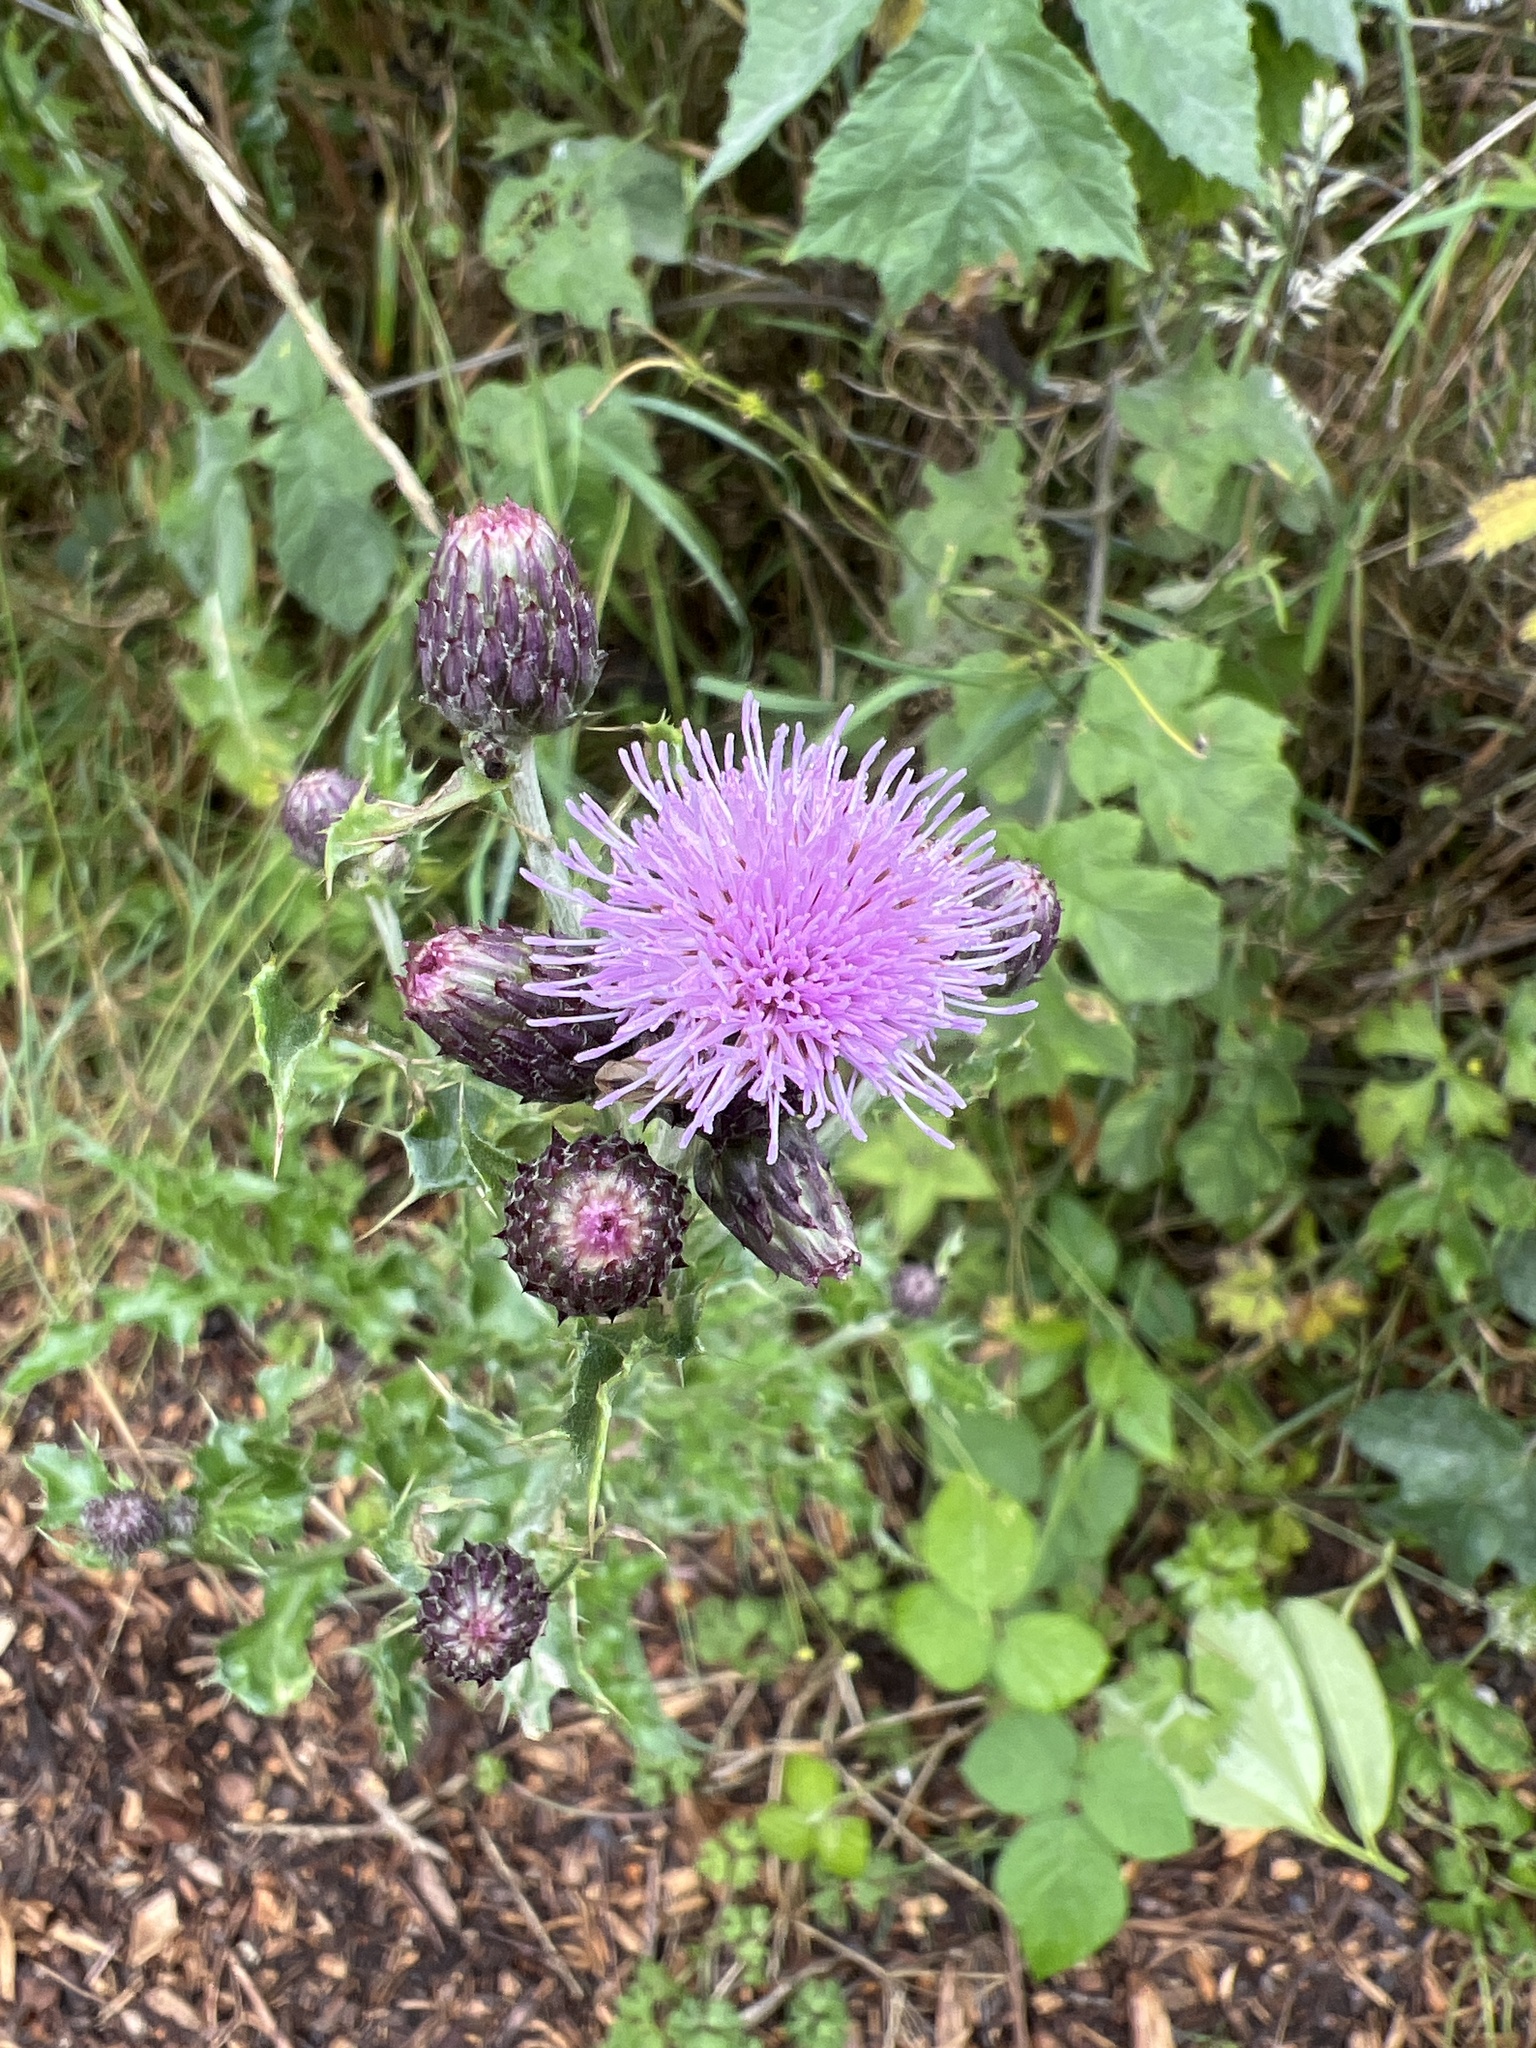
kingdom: Plantae
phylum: Tracheophyta
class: Magnoliopsida
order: Asterales
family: Asteraceae
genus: Cirsium
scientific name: Cirsium arvense
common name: Creeping thistle
